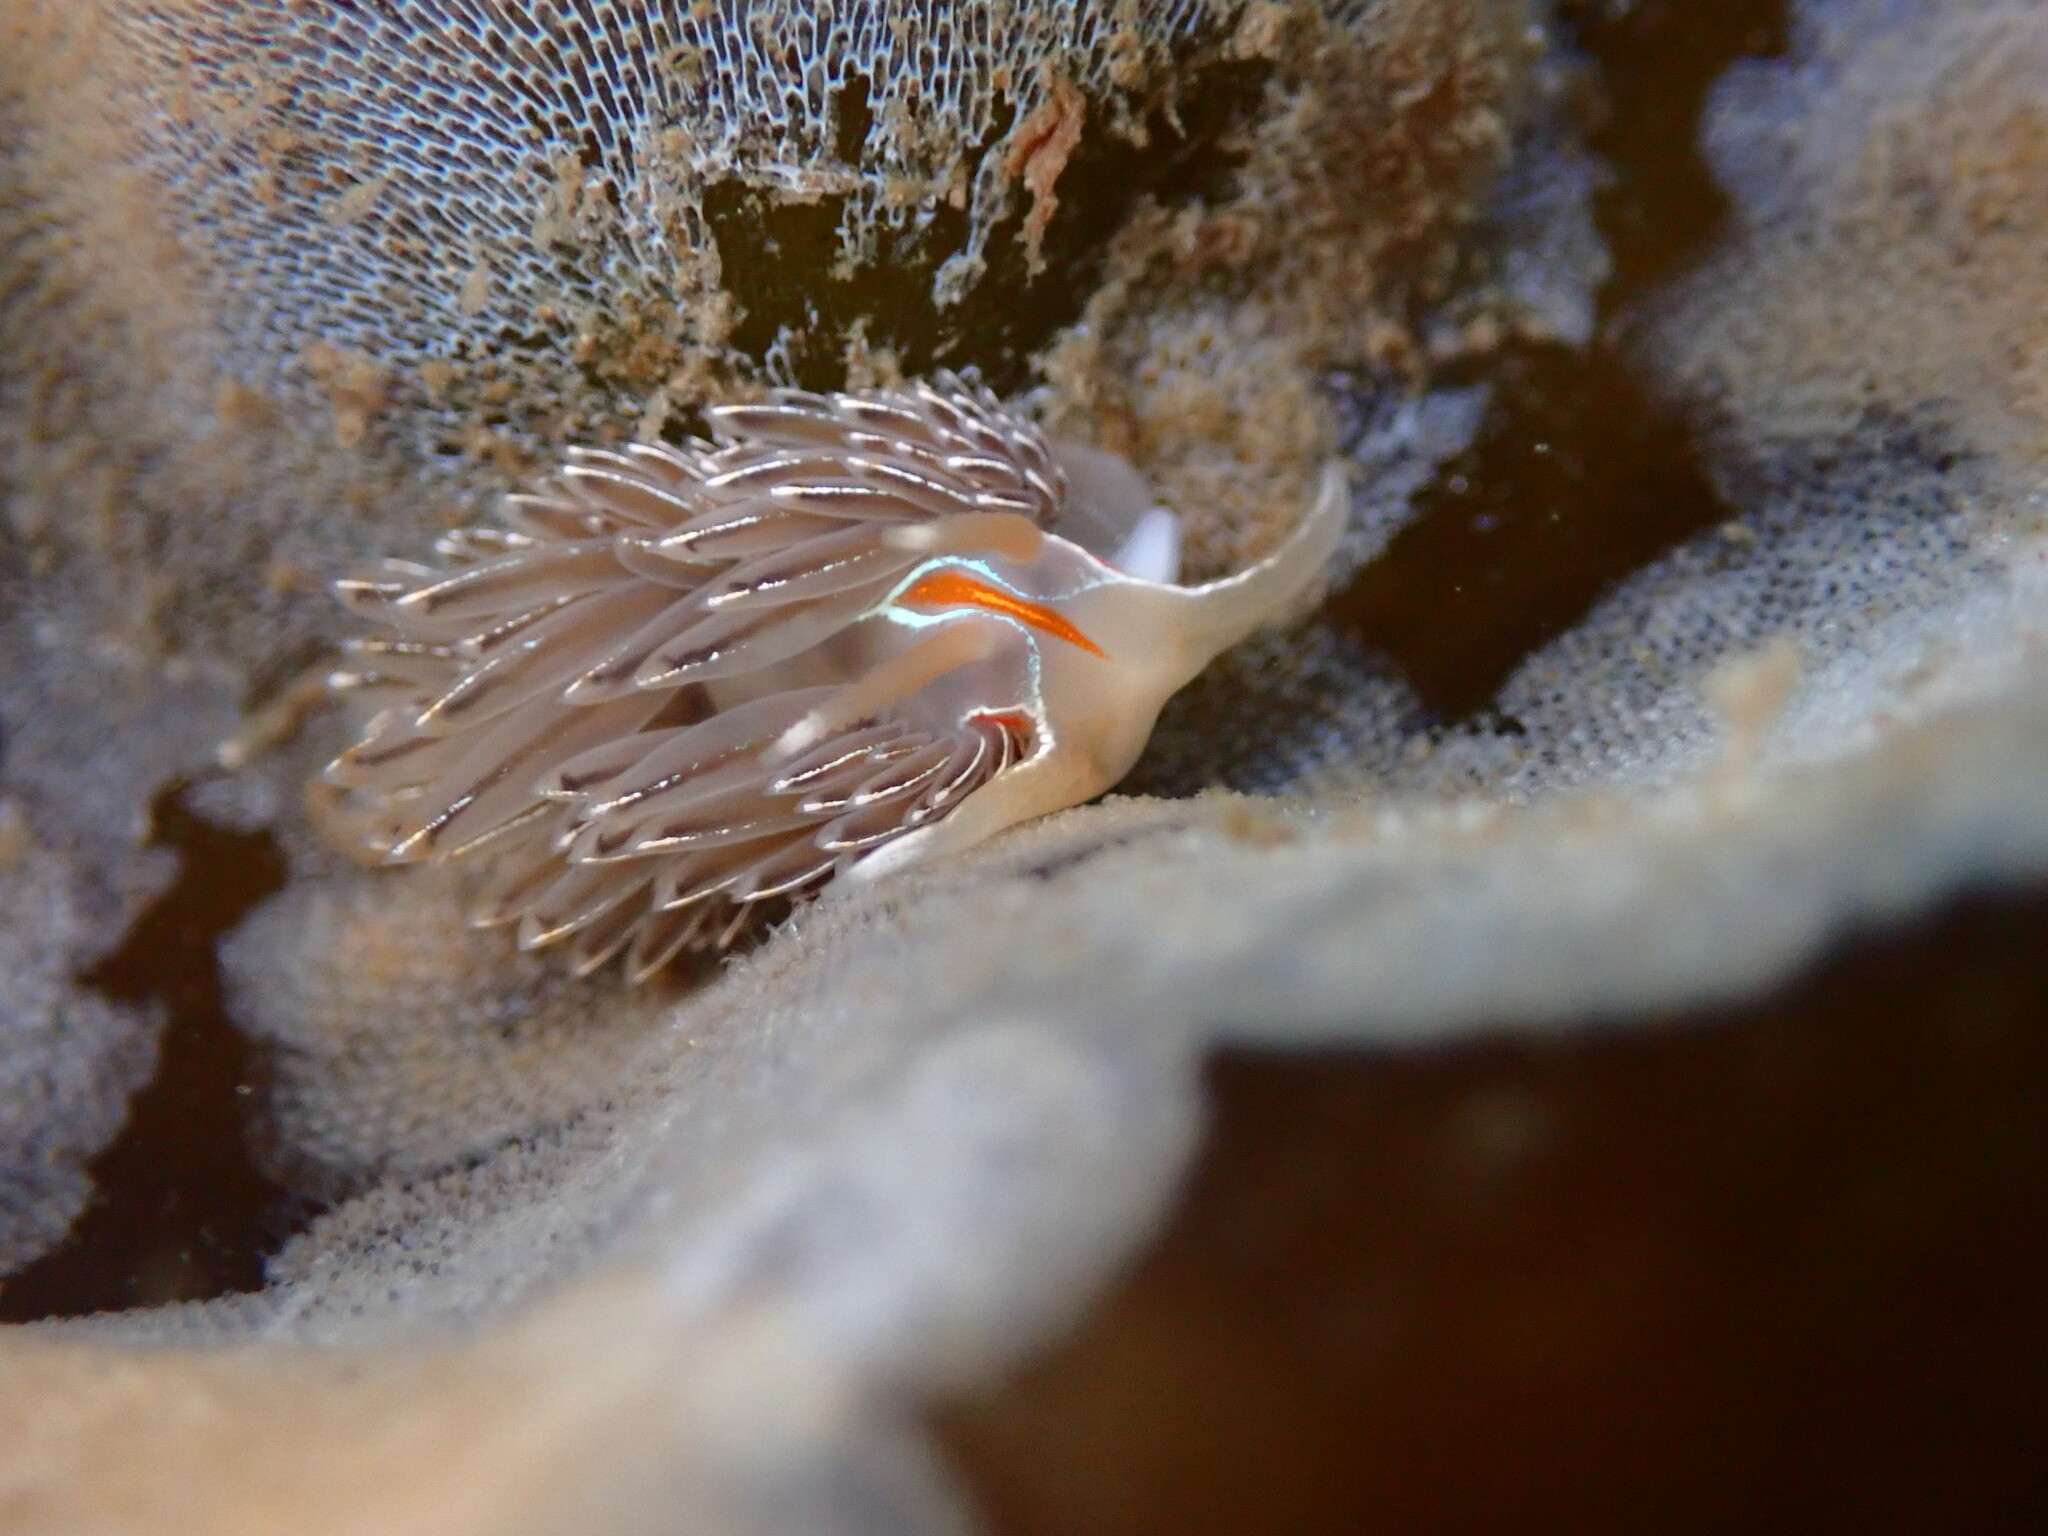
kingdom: Animalia
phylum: Mollusca
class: Gastropoda
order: Nudibranchia
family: Myrrhinidae
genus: Hermissenda
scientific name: Hermissenda crassicornis
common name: Hermissenda
